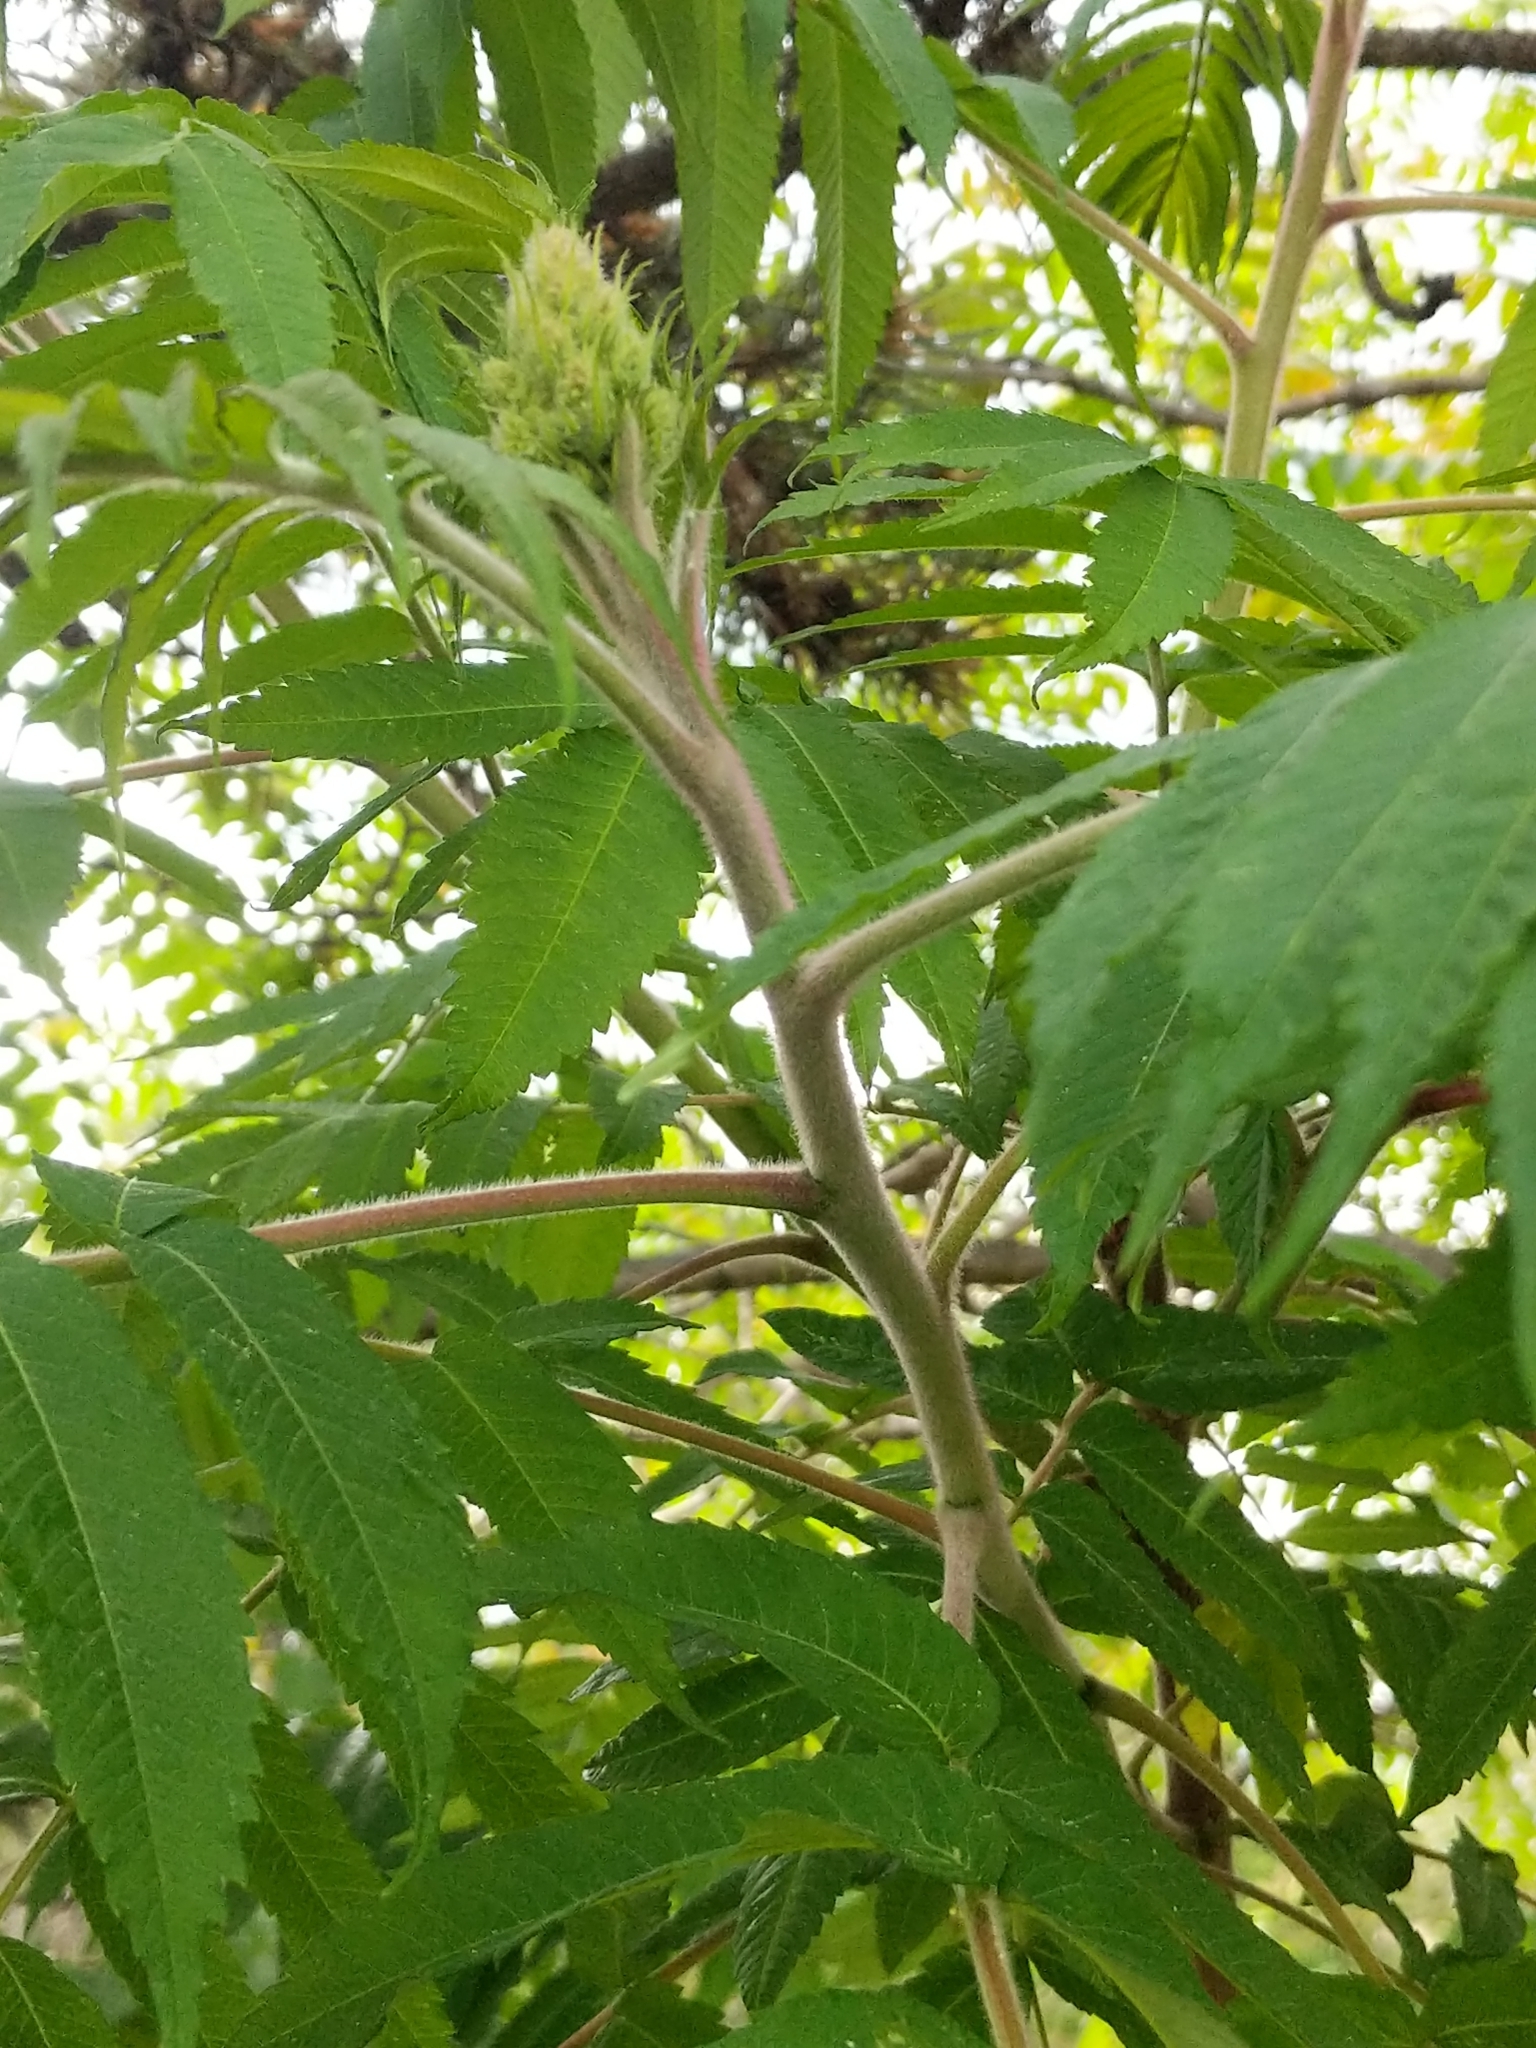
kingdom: Plantae
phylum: Tracheophyta
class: Magnoliopsida
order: Sapindales
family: Anacardiaceae
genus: Rhus
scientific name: Rhus typhina
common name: Staghorn sumac
